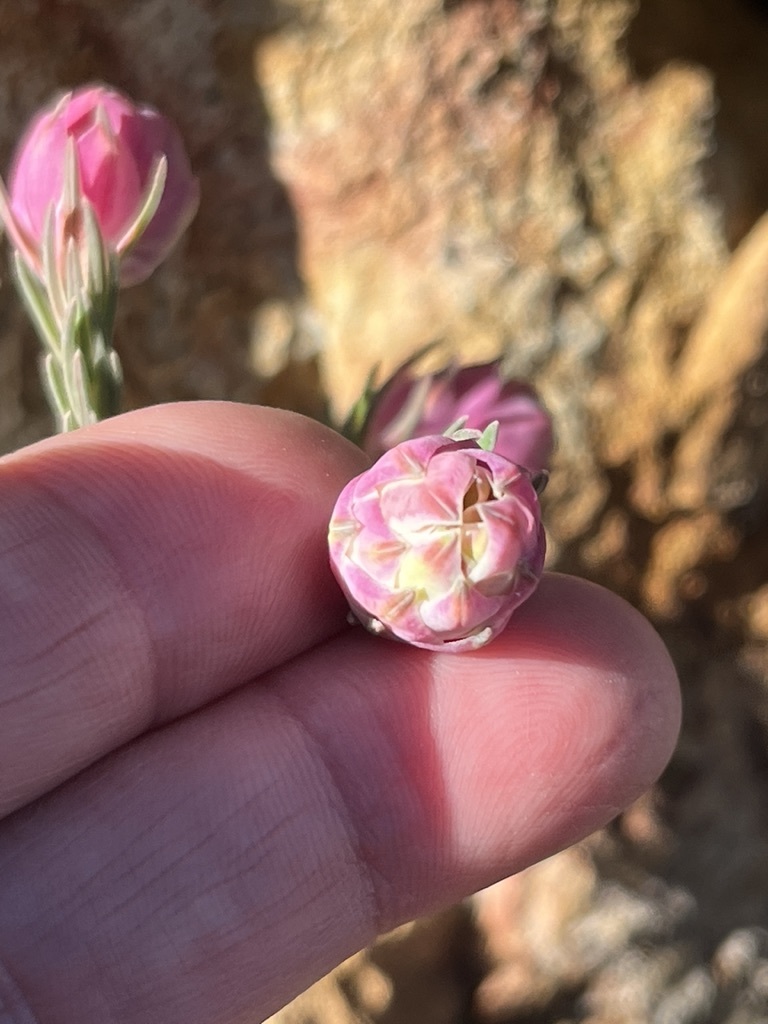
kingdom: Plantae
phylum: Tracheophyta
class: Magnoliopsida
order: Ericales
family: Ericaceae
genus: Erica
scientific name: Erica glauca
